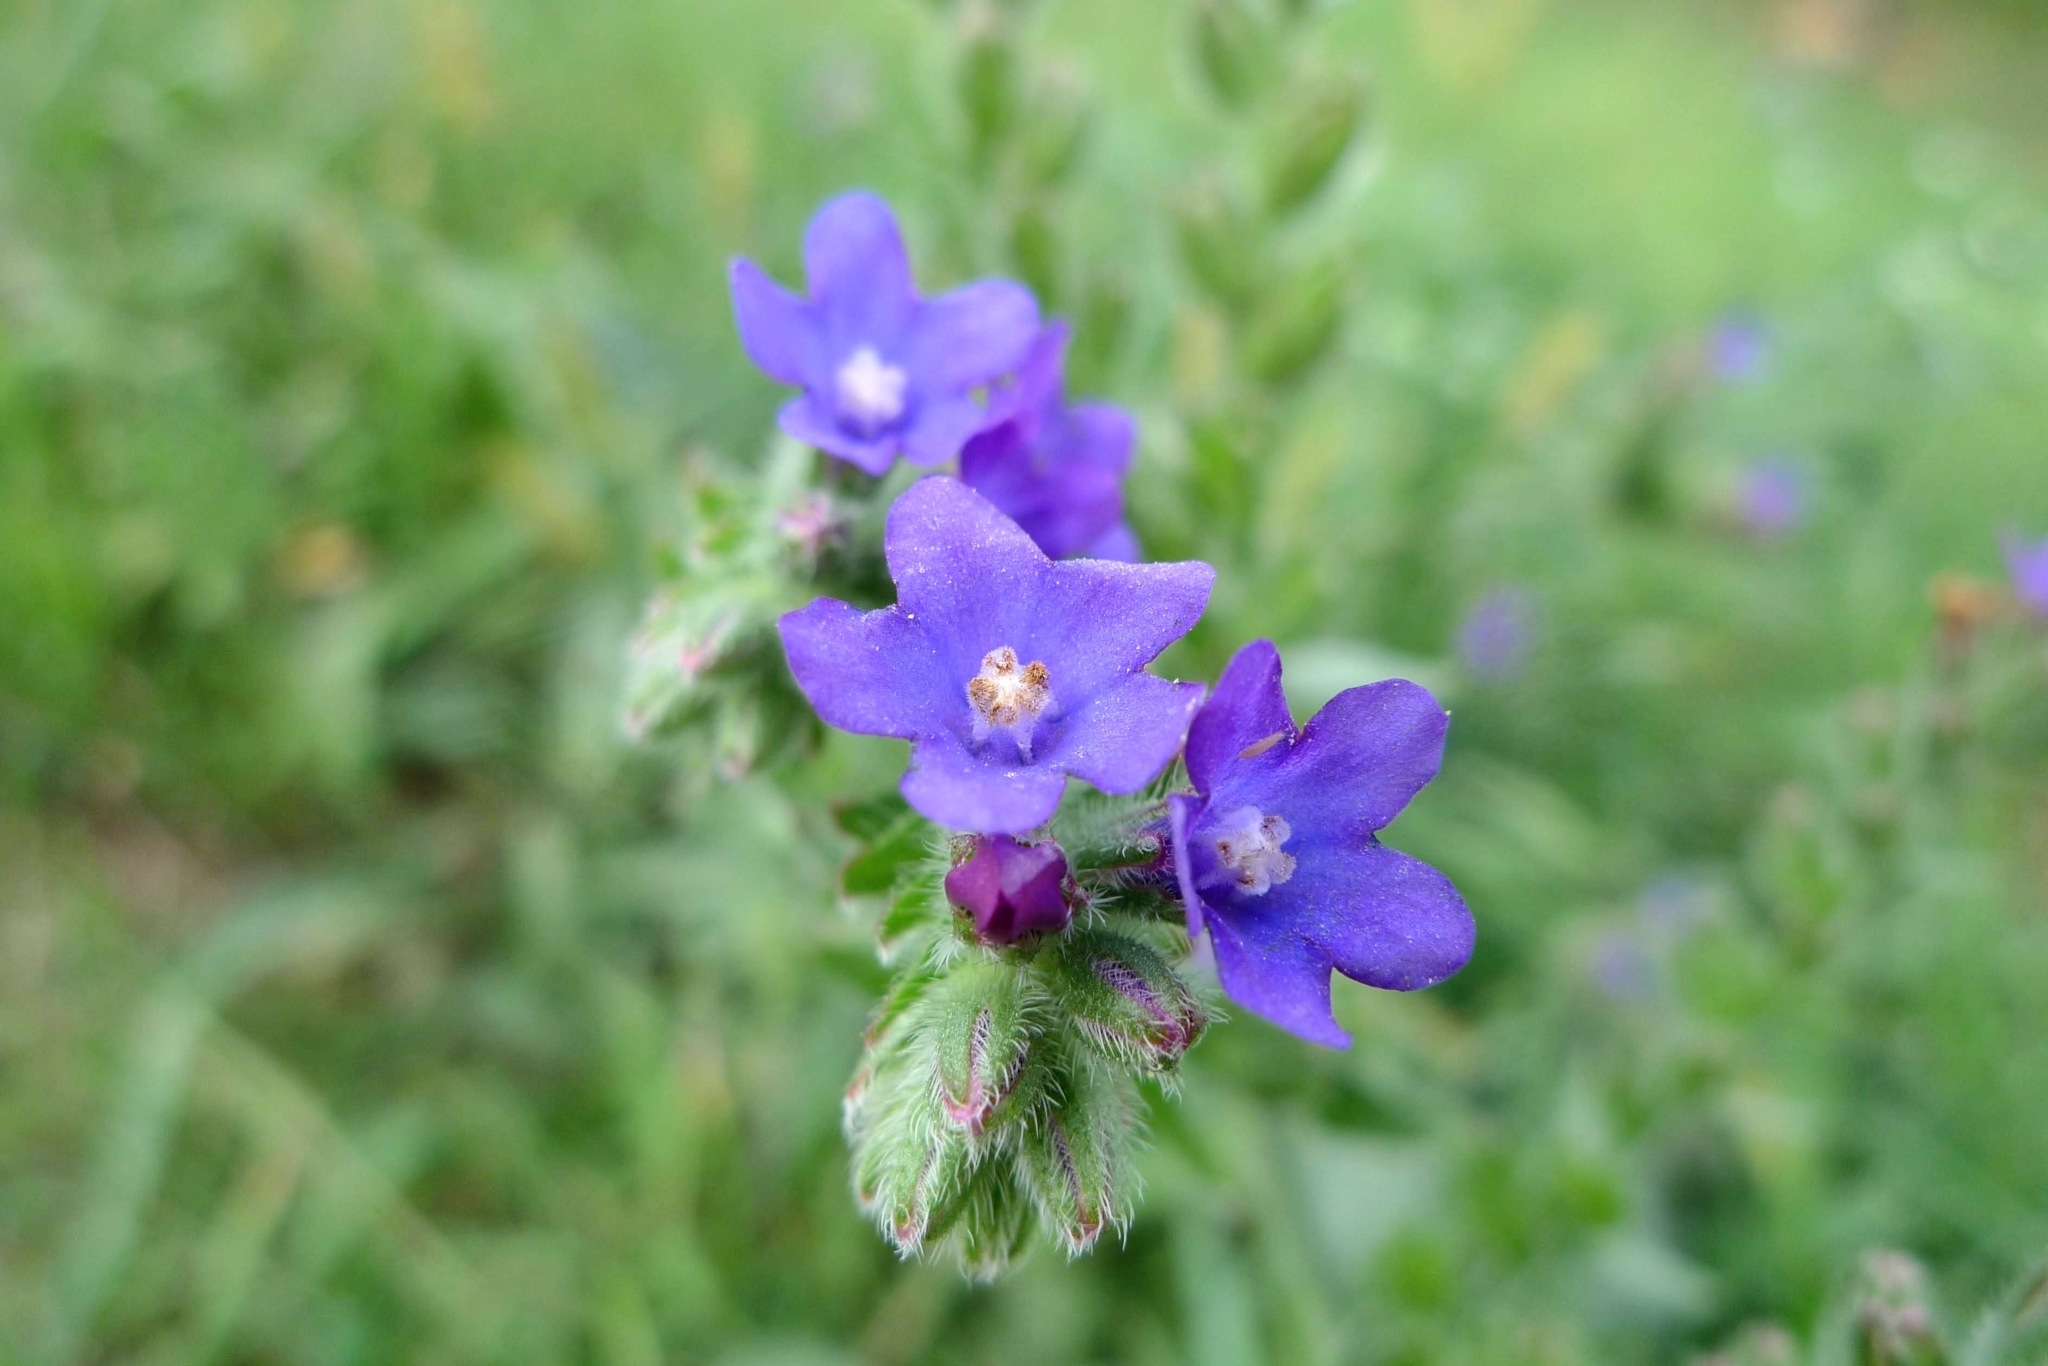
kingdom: Plantae
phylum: Tracheophyta
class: Magnoliopsida
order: Boraginales
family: Boraginaceae
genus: Anchusa
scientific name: Anchusa officinalis
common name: Alkanet
